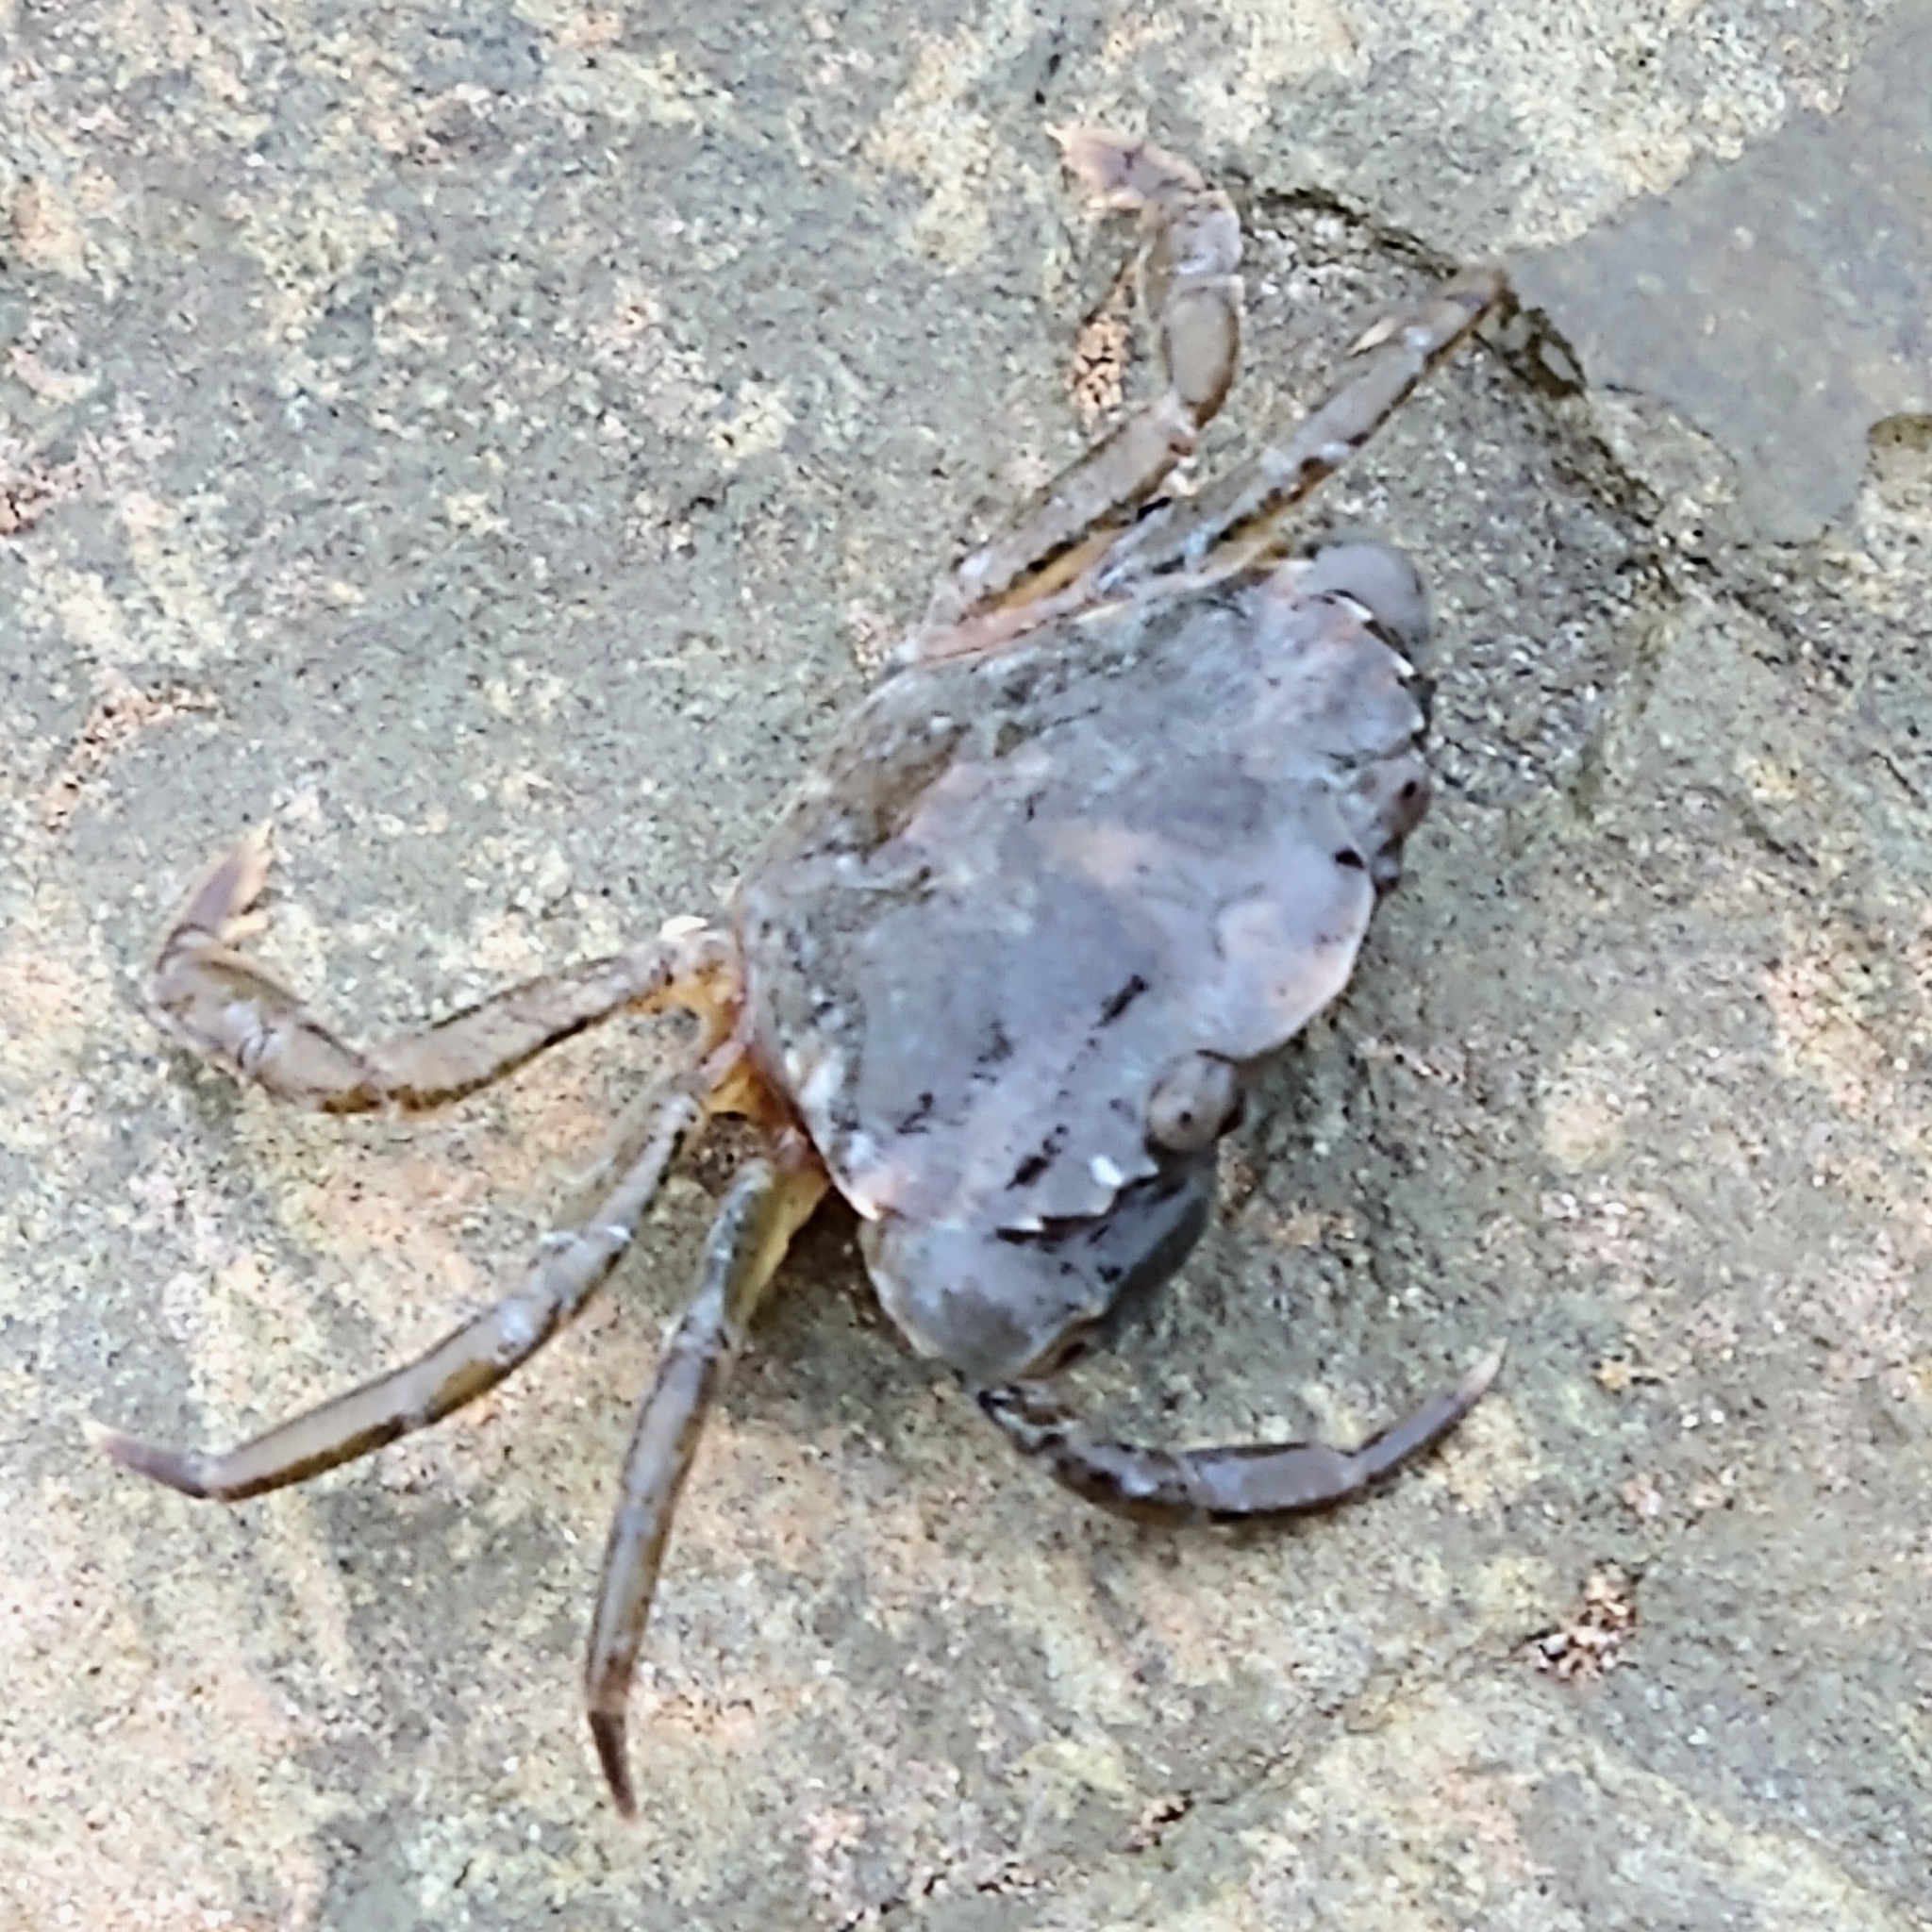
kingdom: Animalia
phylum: Arthropoda
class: Malacostraca
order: Decapoda
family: Carcinidae
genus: Carcinus
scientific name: Carcinus maenas
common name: European green crab
